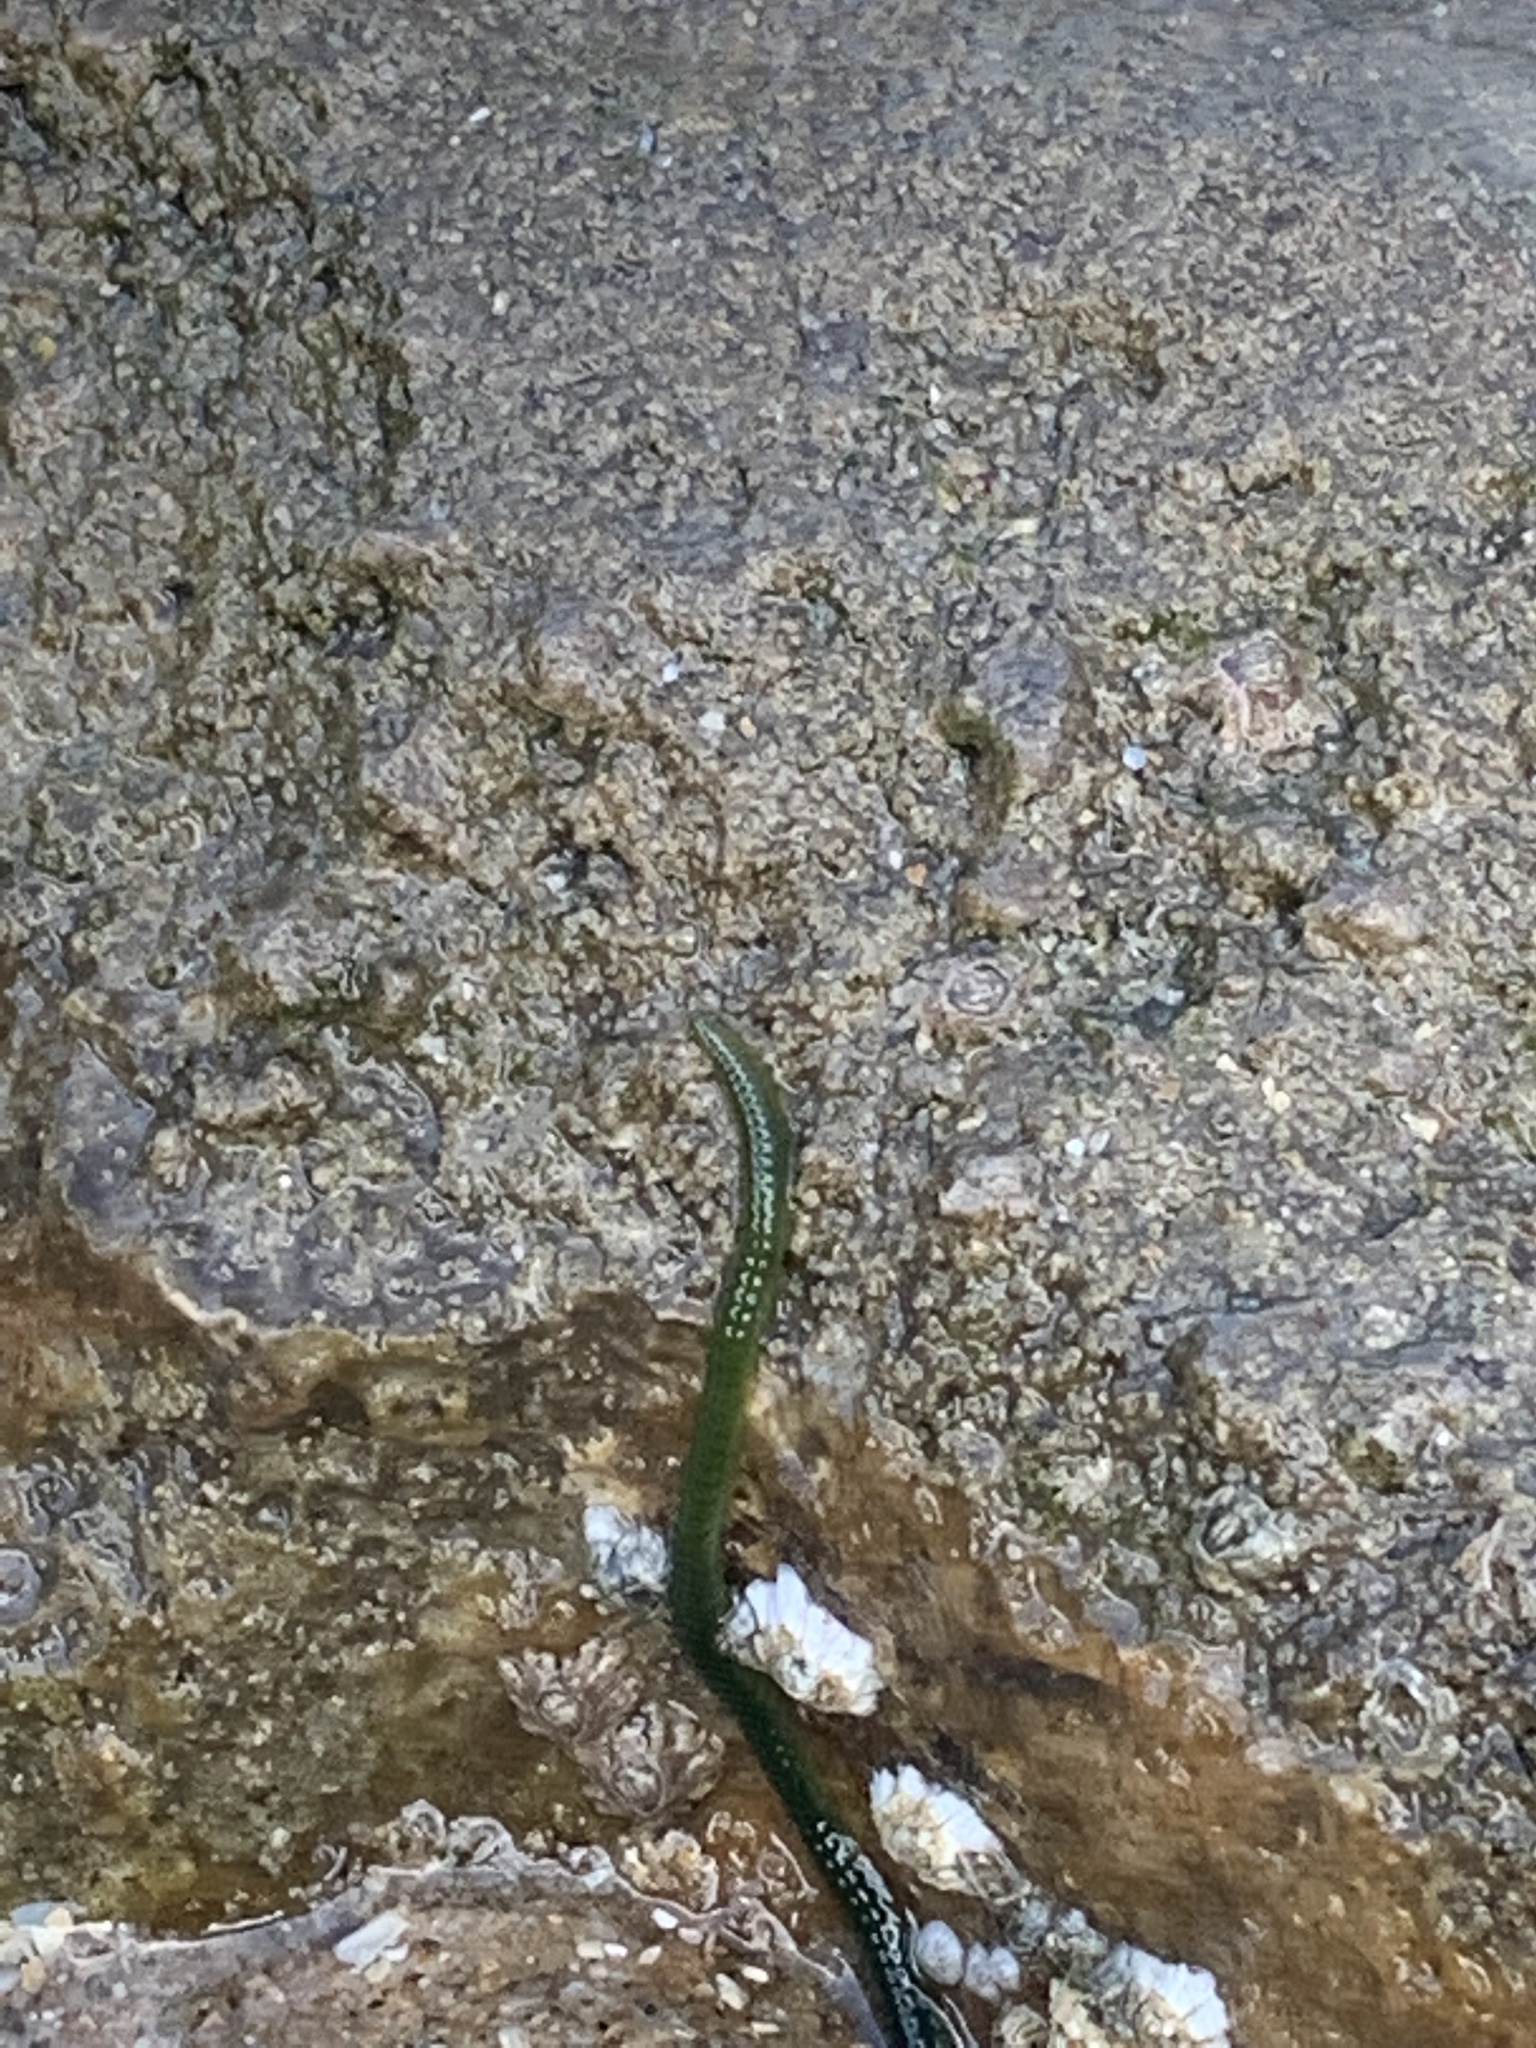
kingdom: Animalia
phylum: Annelida
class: Polychaeta
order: Phyllodocida
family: Phyllodocidae
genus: Eulalia
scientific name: Eulalia clavigera
